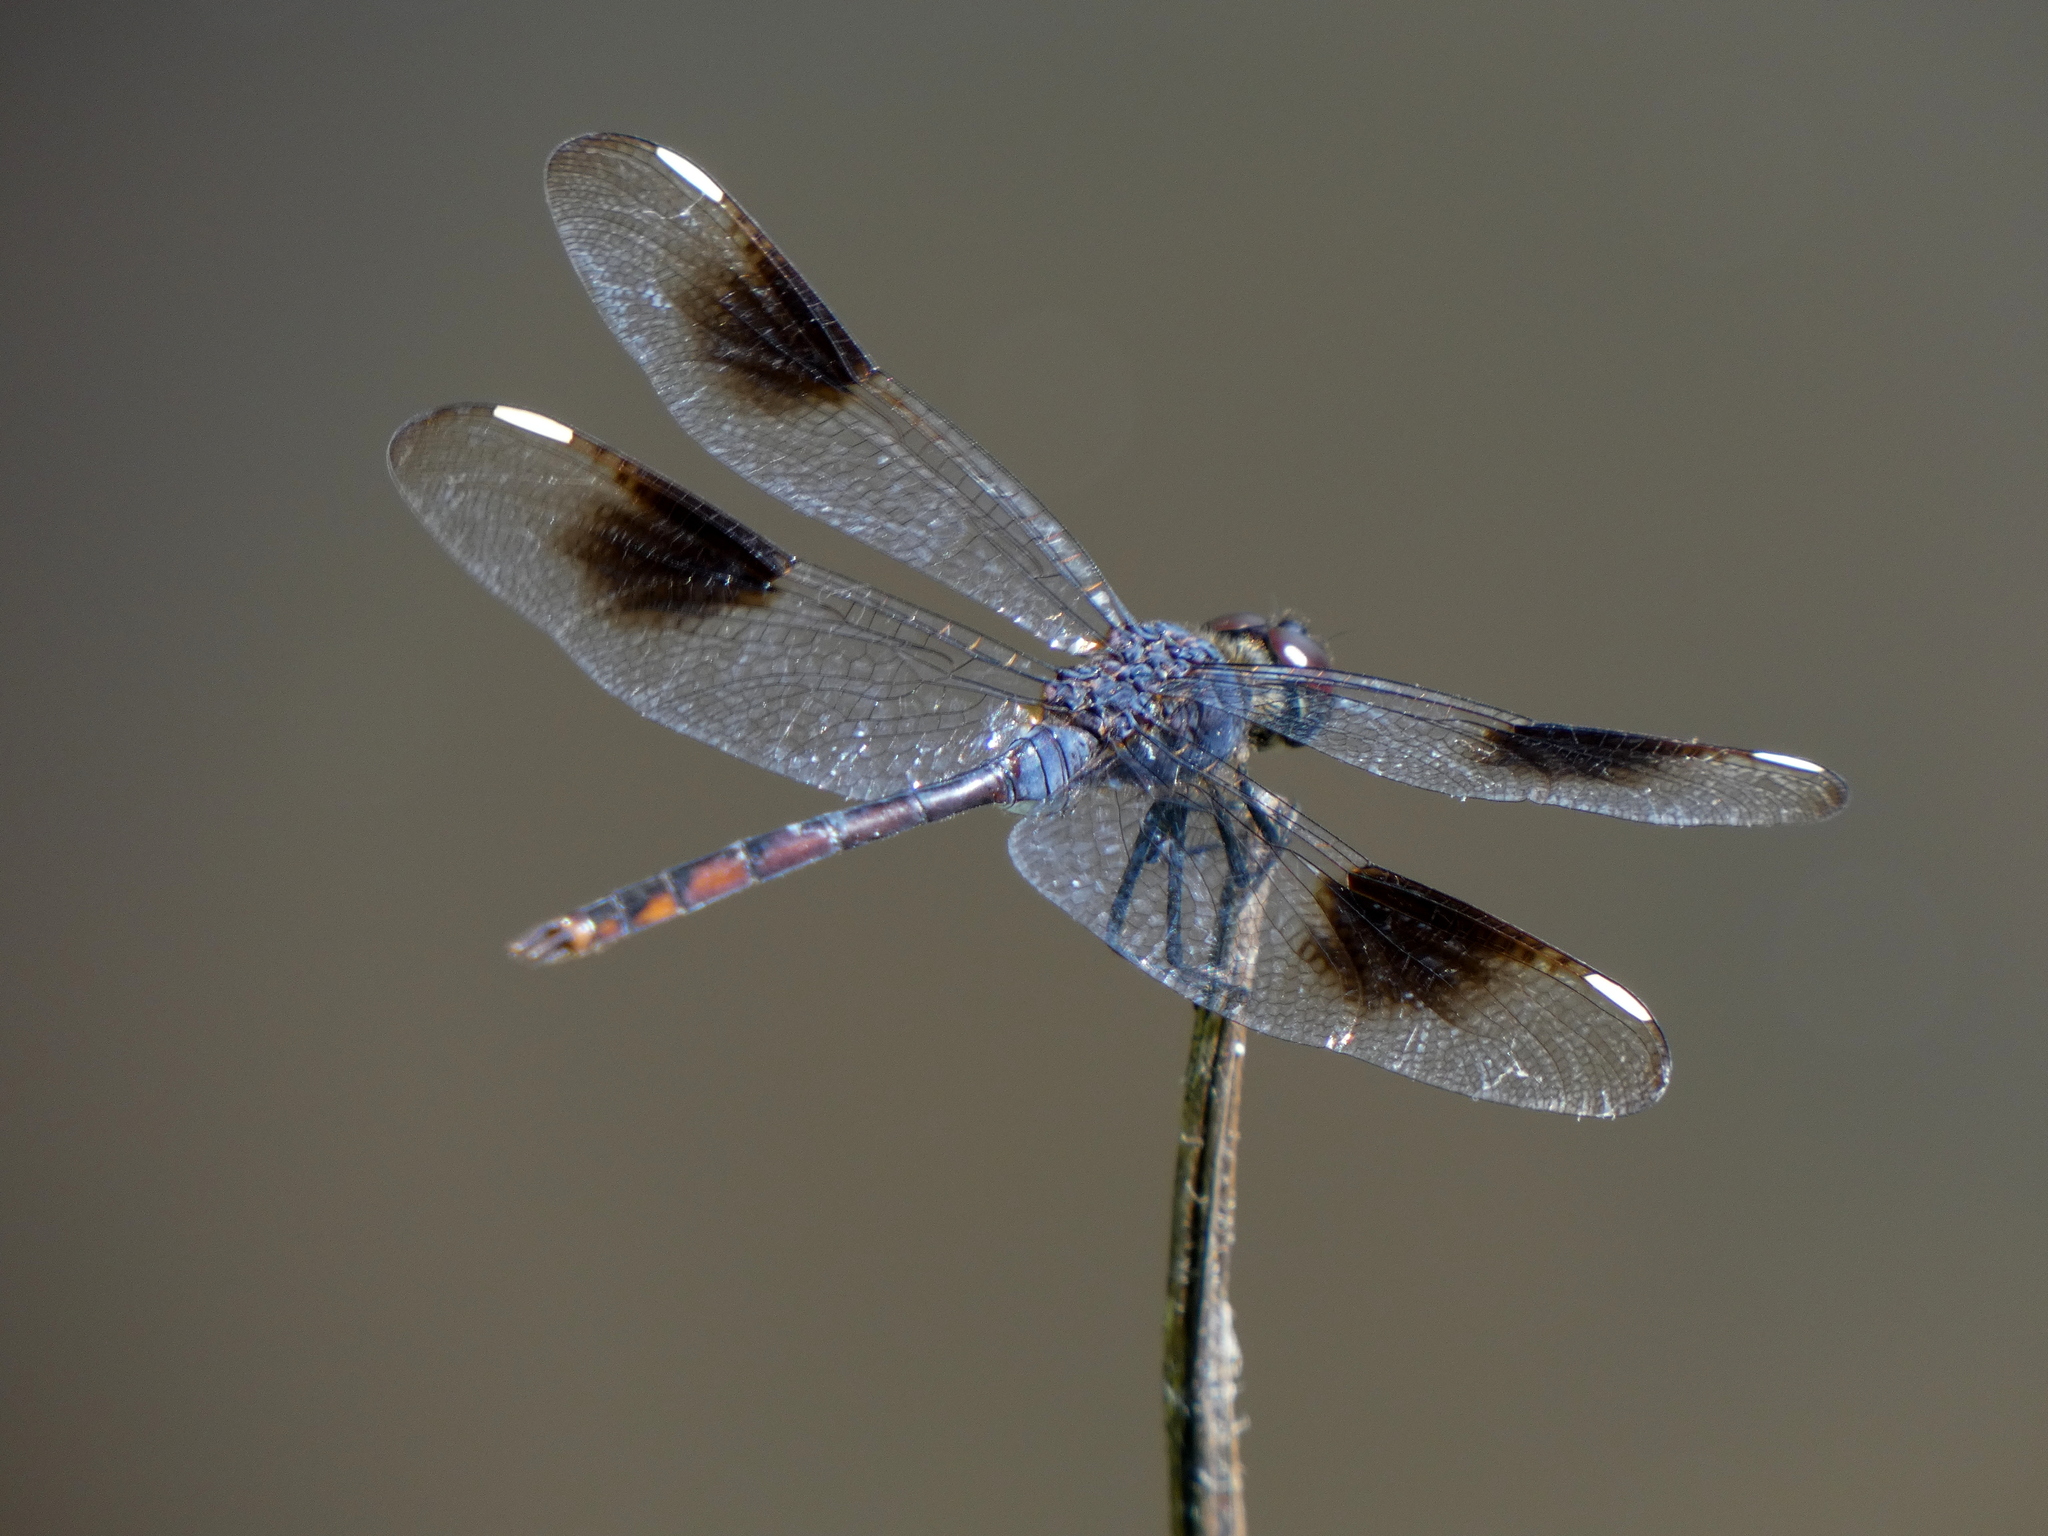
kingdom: Animalia
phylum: Arthropoda
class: Insecta
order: Odonata
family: Libellulidae
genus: Brachymesia
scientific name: Brachymesia gravida
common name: Four-spotted pennant
